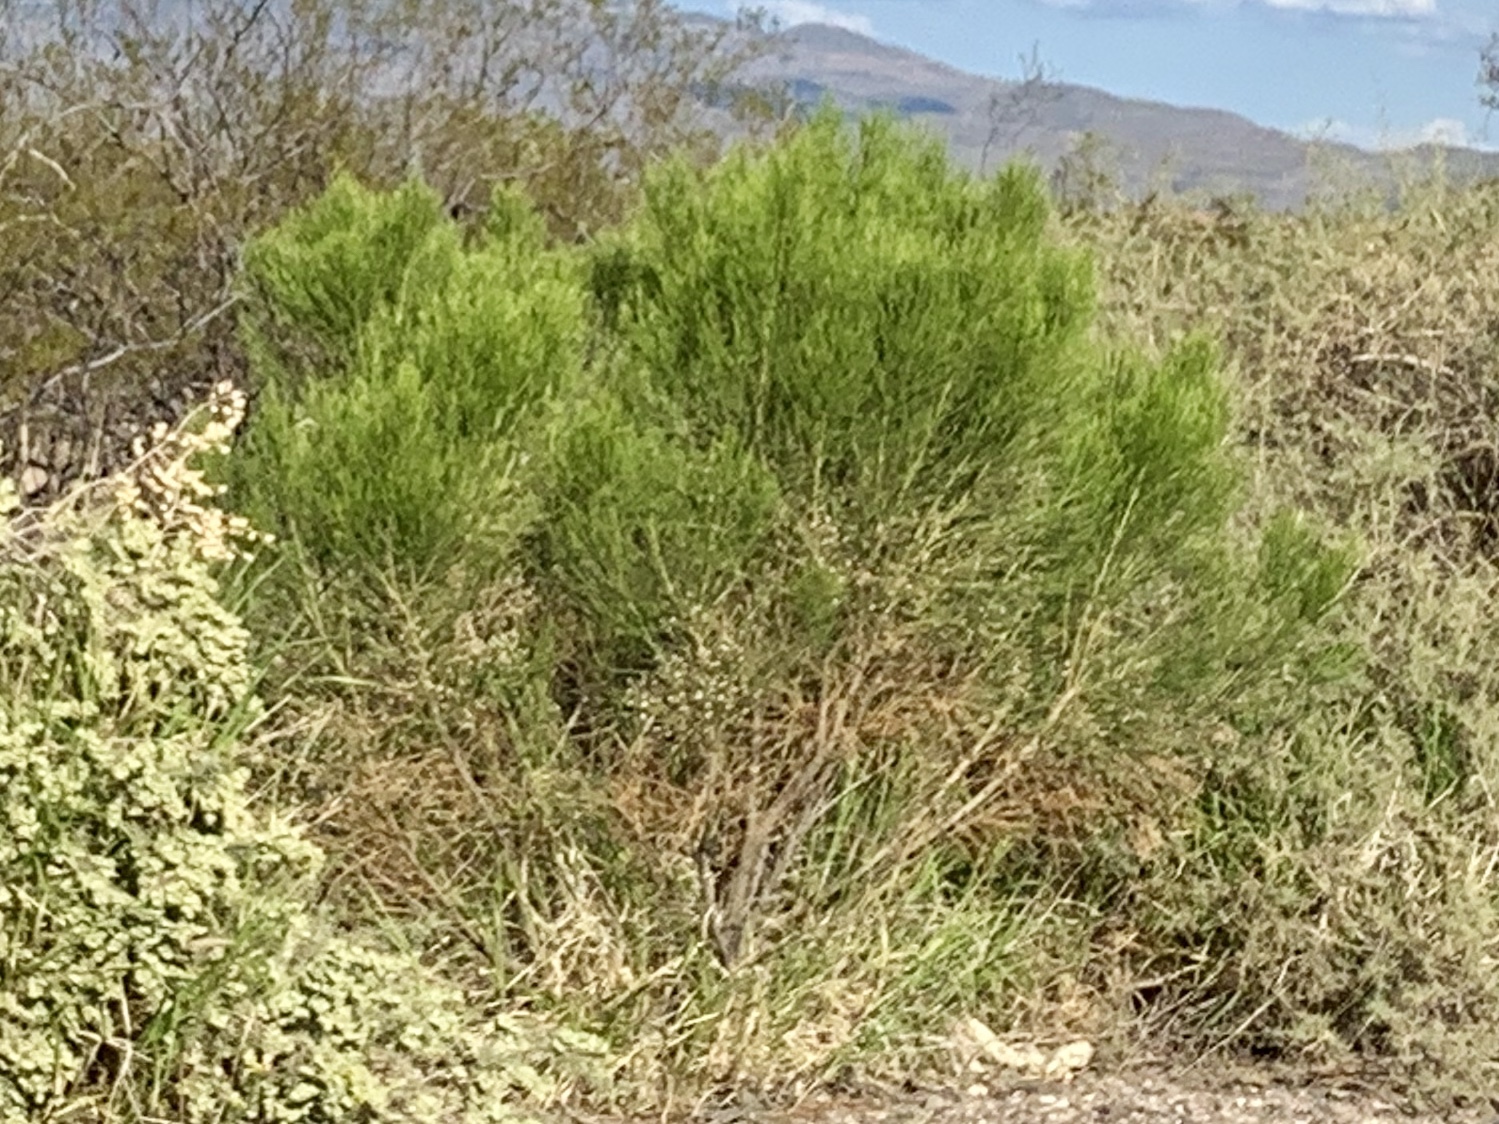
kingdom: Plantae
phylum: Tracheophyta
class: Magnoliopsida
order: Asterales
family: Asteraceae
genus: Baccharis
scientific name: Baccharis sarothroides
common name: Desert-broom
